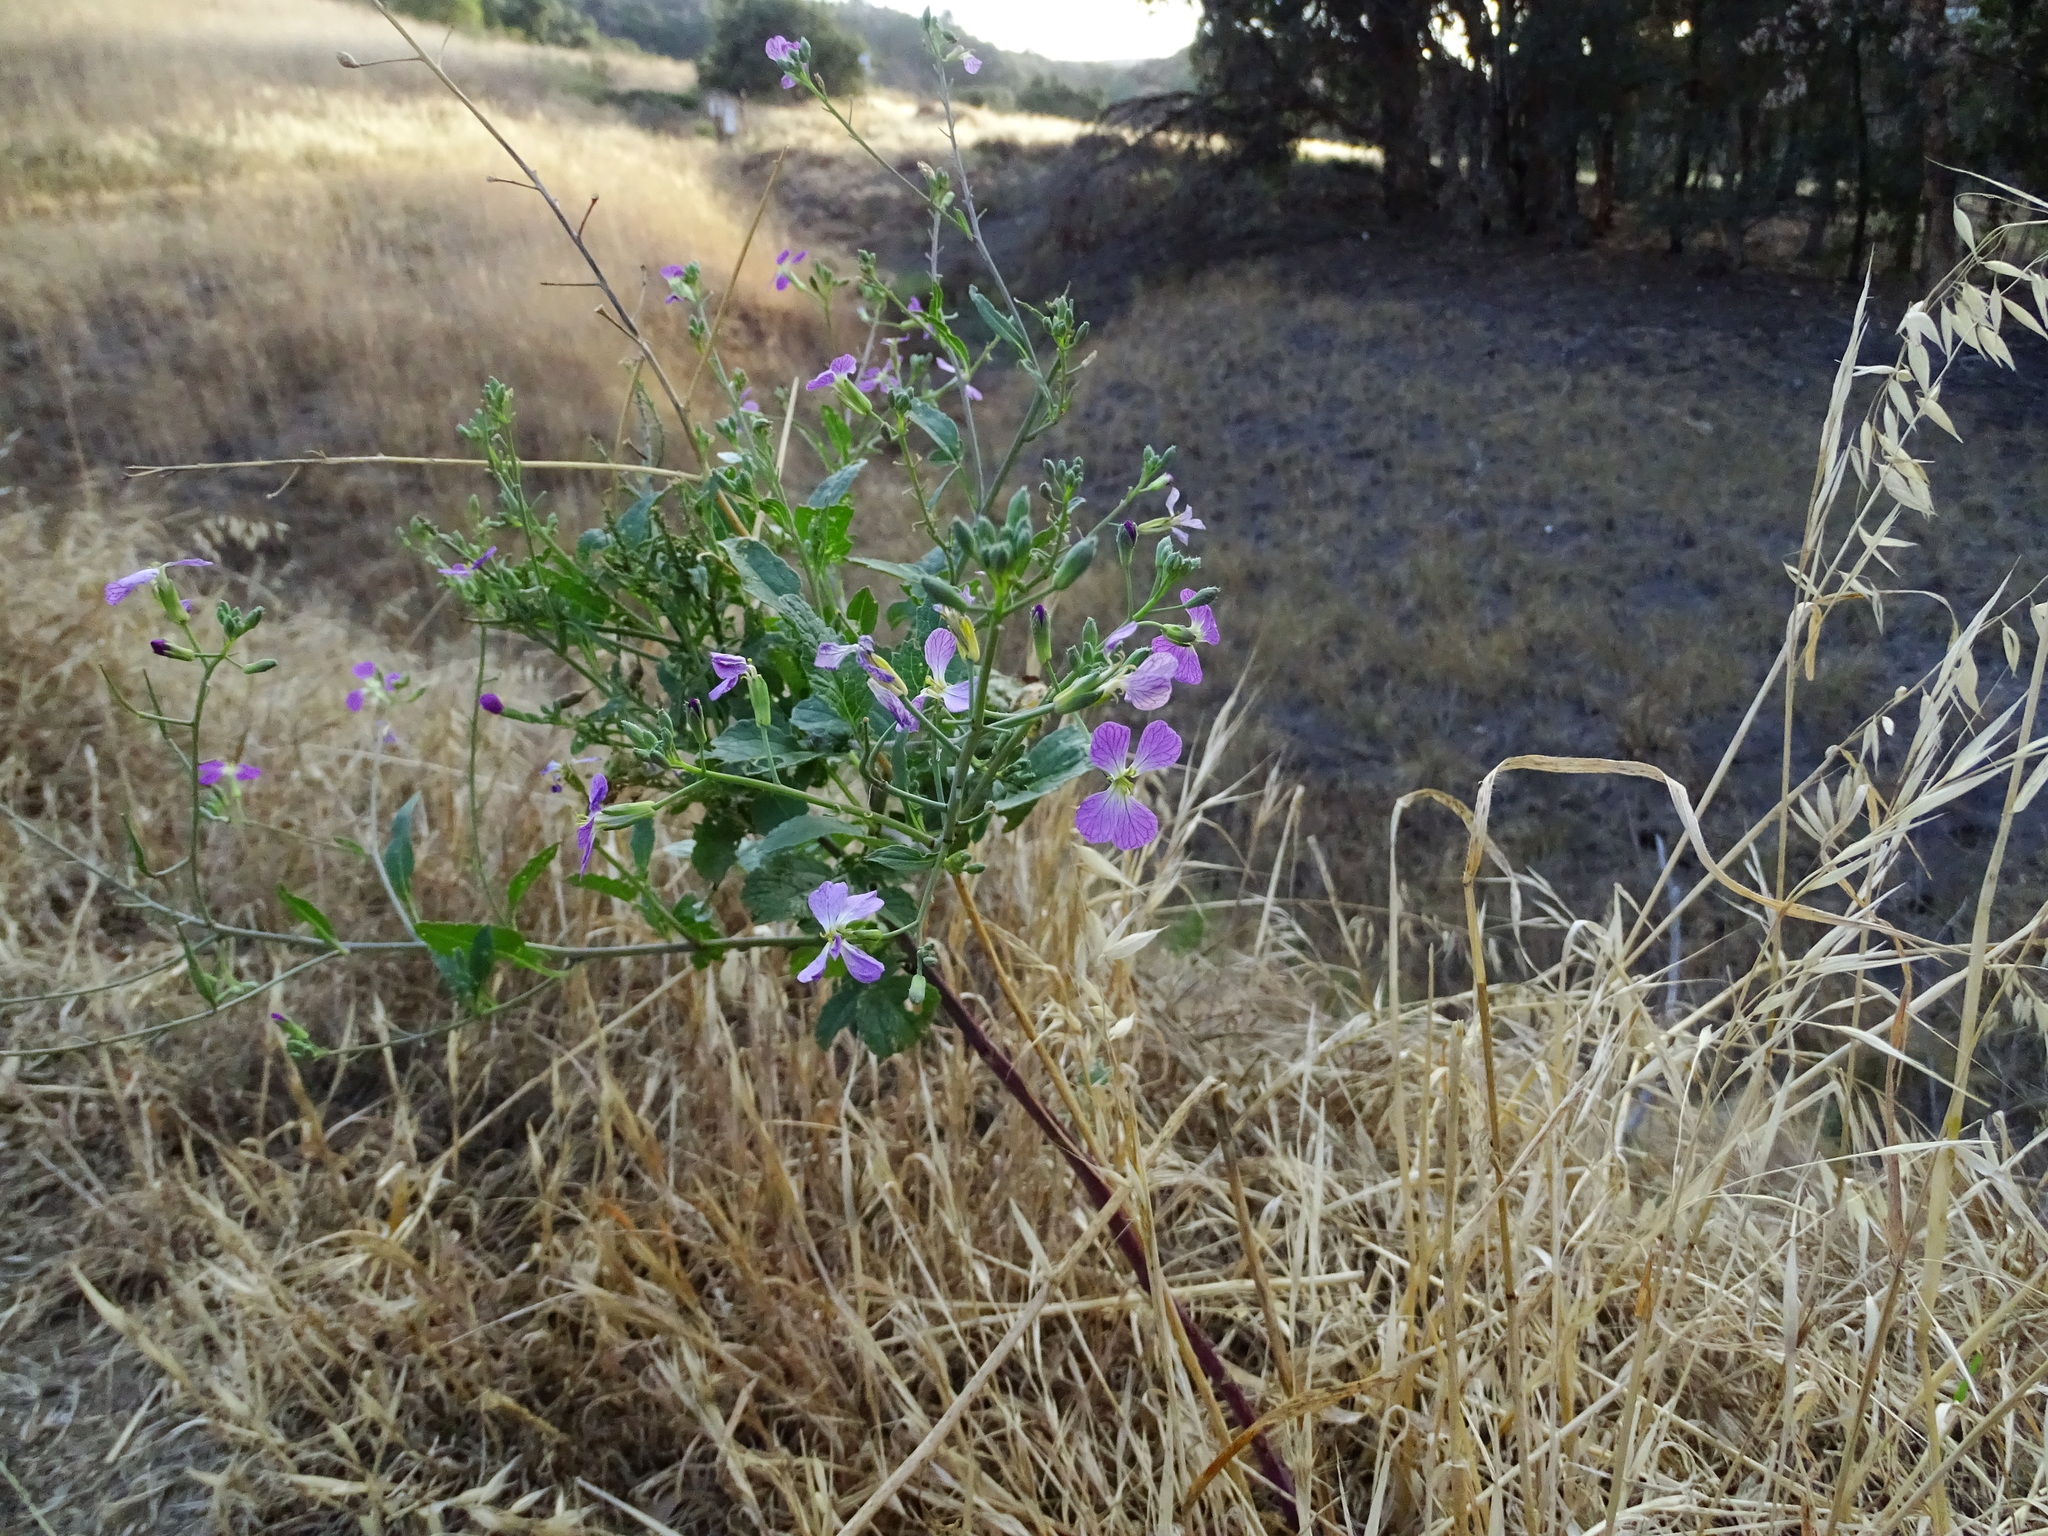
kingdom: Plantae
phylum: Tracheophyta
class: Magnoliopsida
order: Brassicales
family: Brassicaceae
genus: Raphanus
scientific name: Raphanus sativus
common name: Cultivated radish
